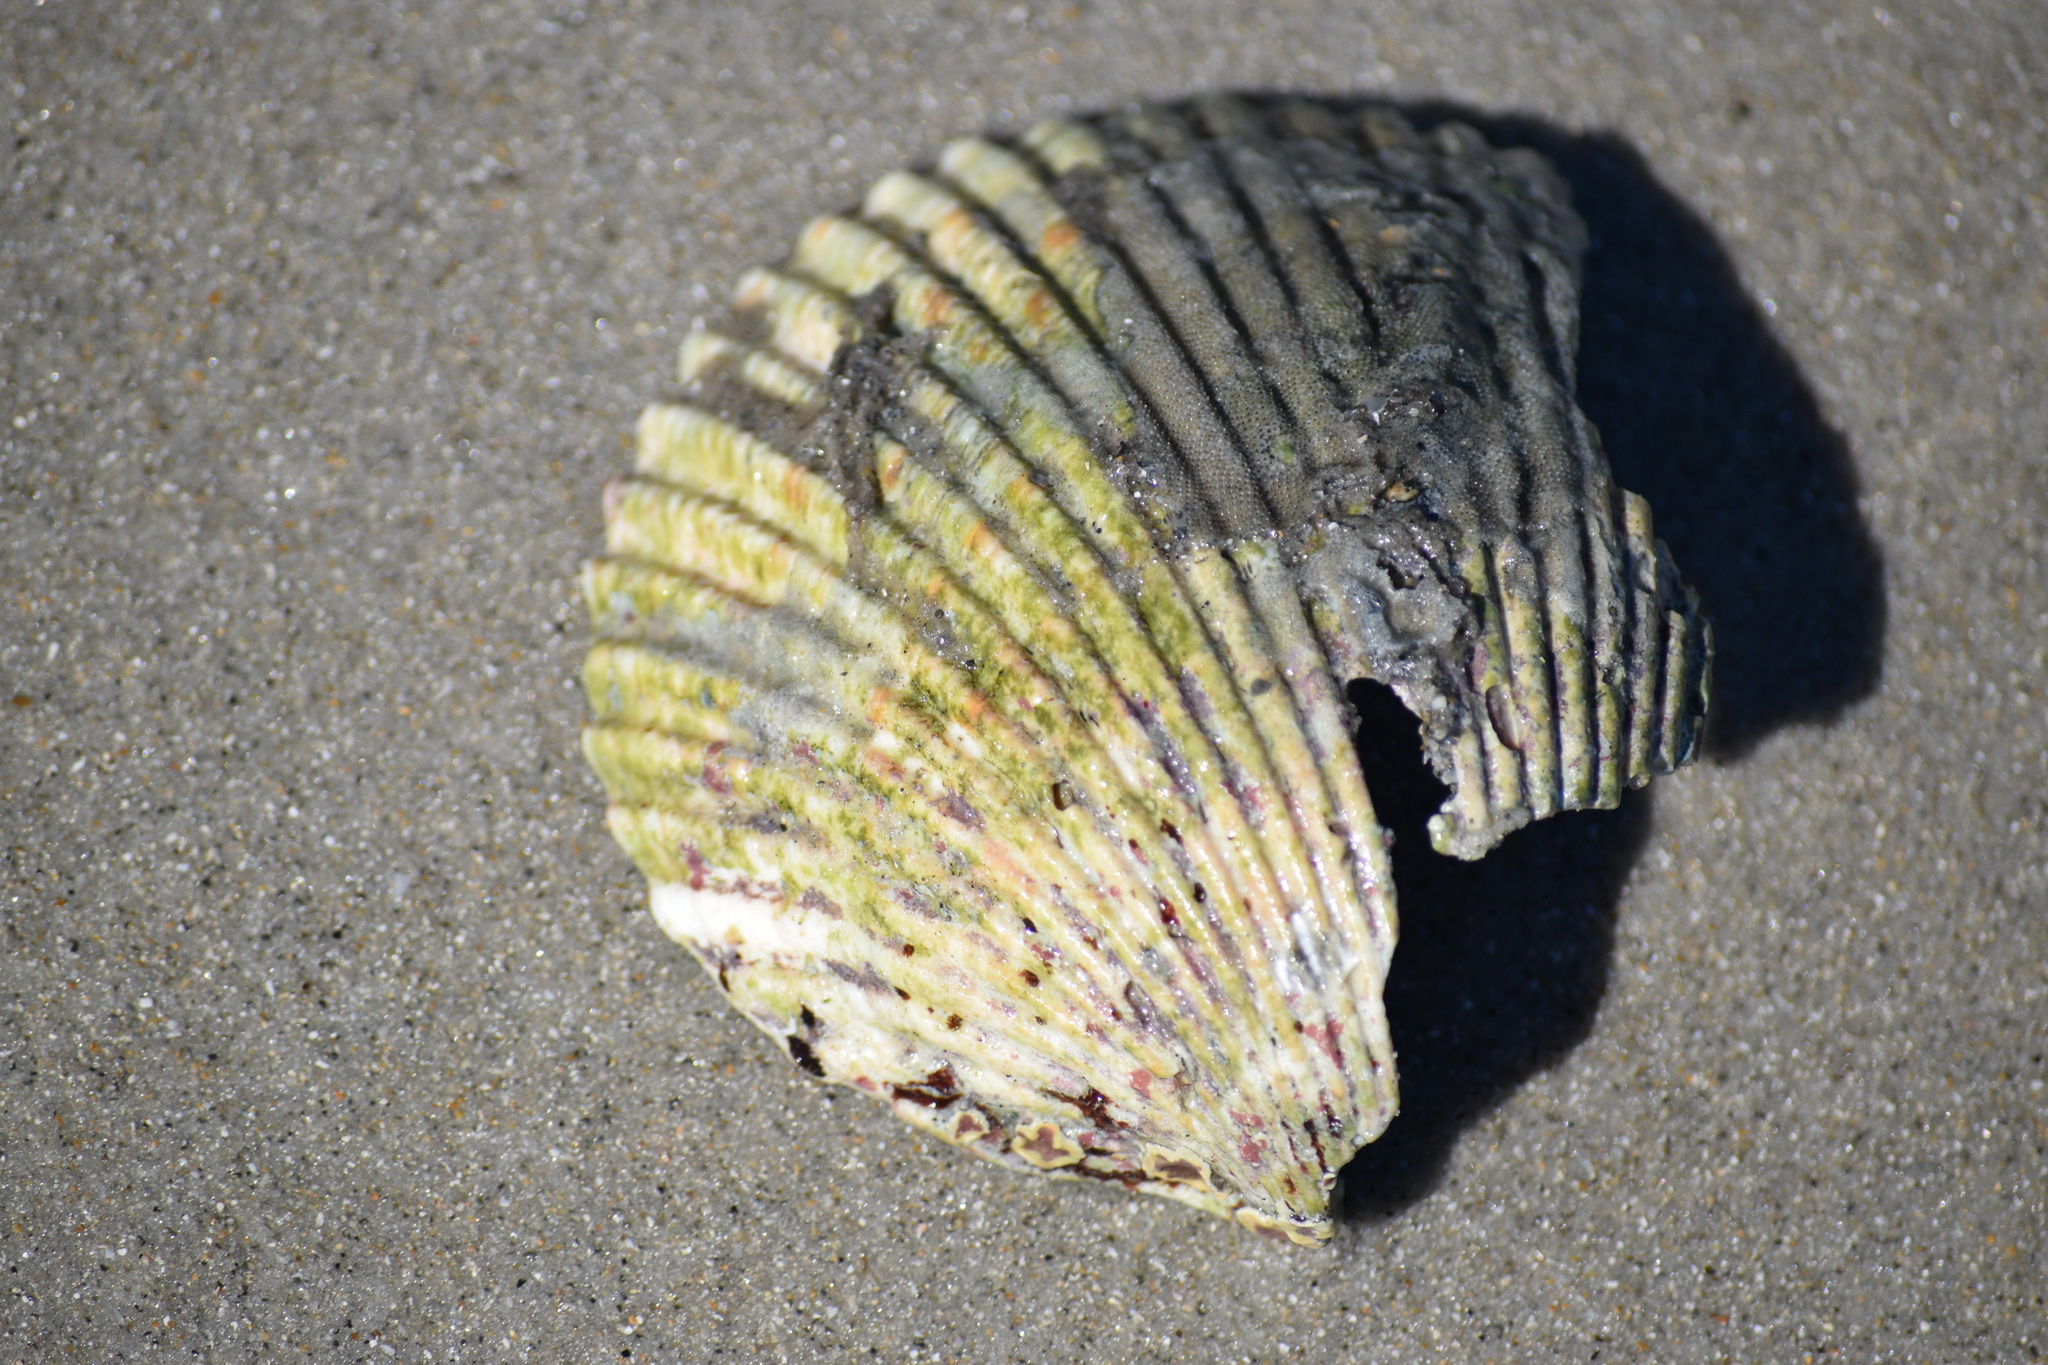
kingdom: Animalia
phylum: Mollusca
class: Bivalvia
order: Cardiida
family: Cardiidae
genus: Dinocardium
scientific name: Dinocardium robustum
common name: Atlantic giant cockle
